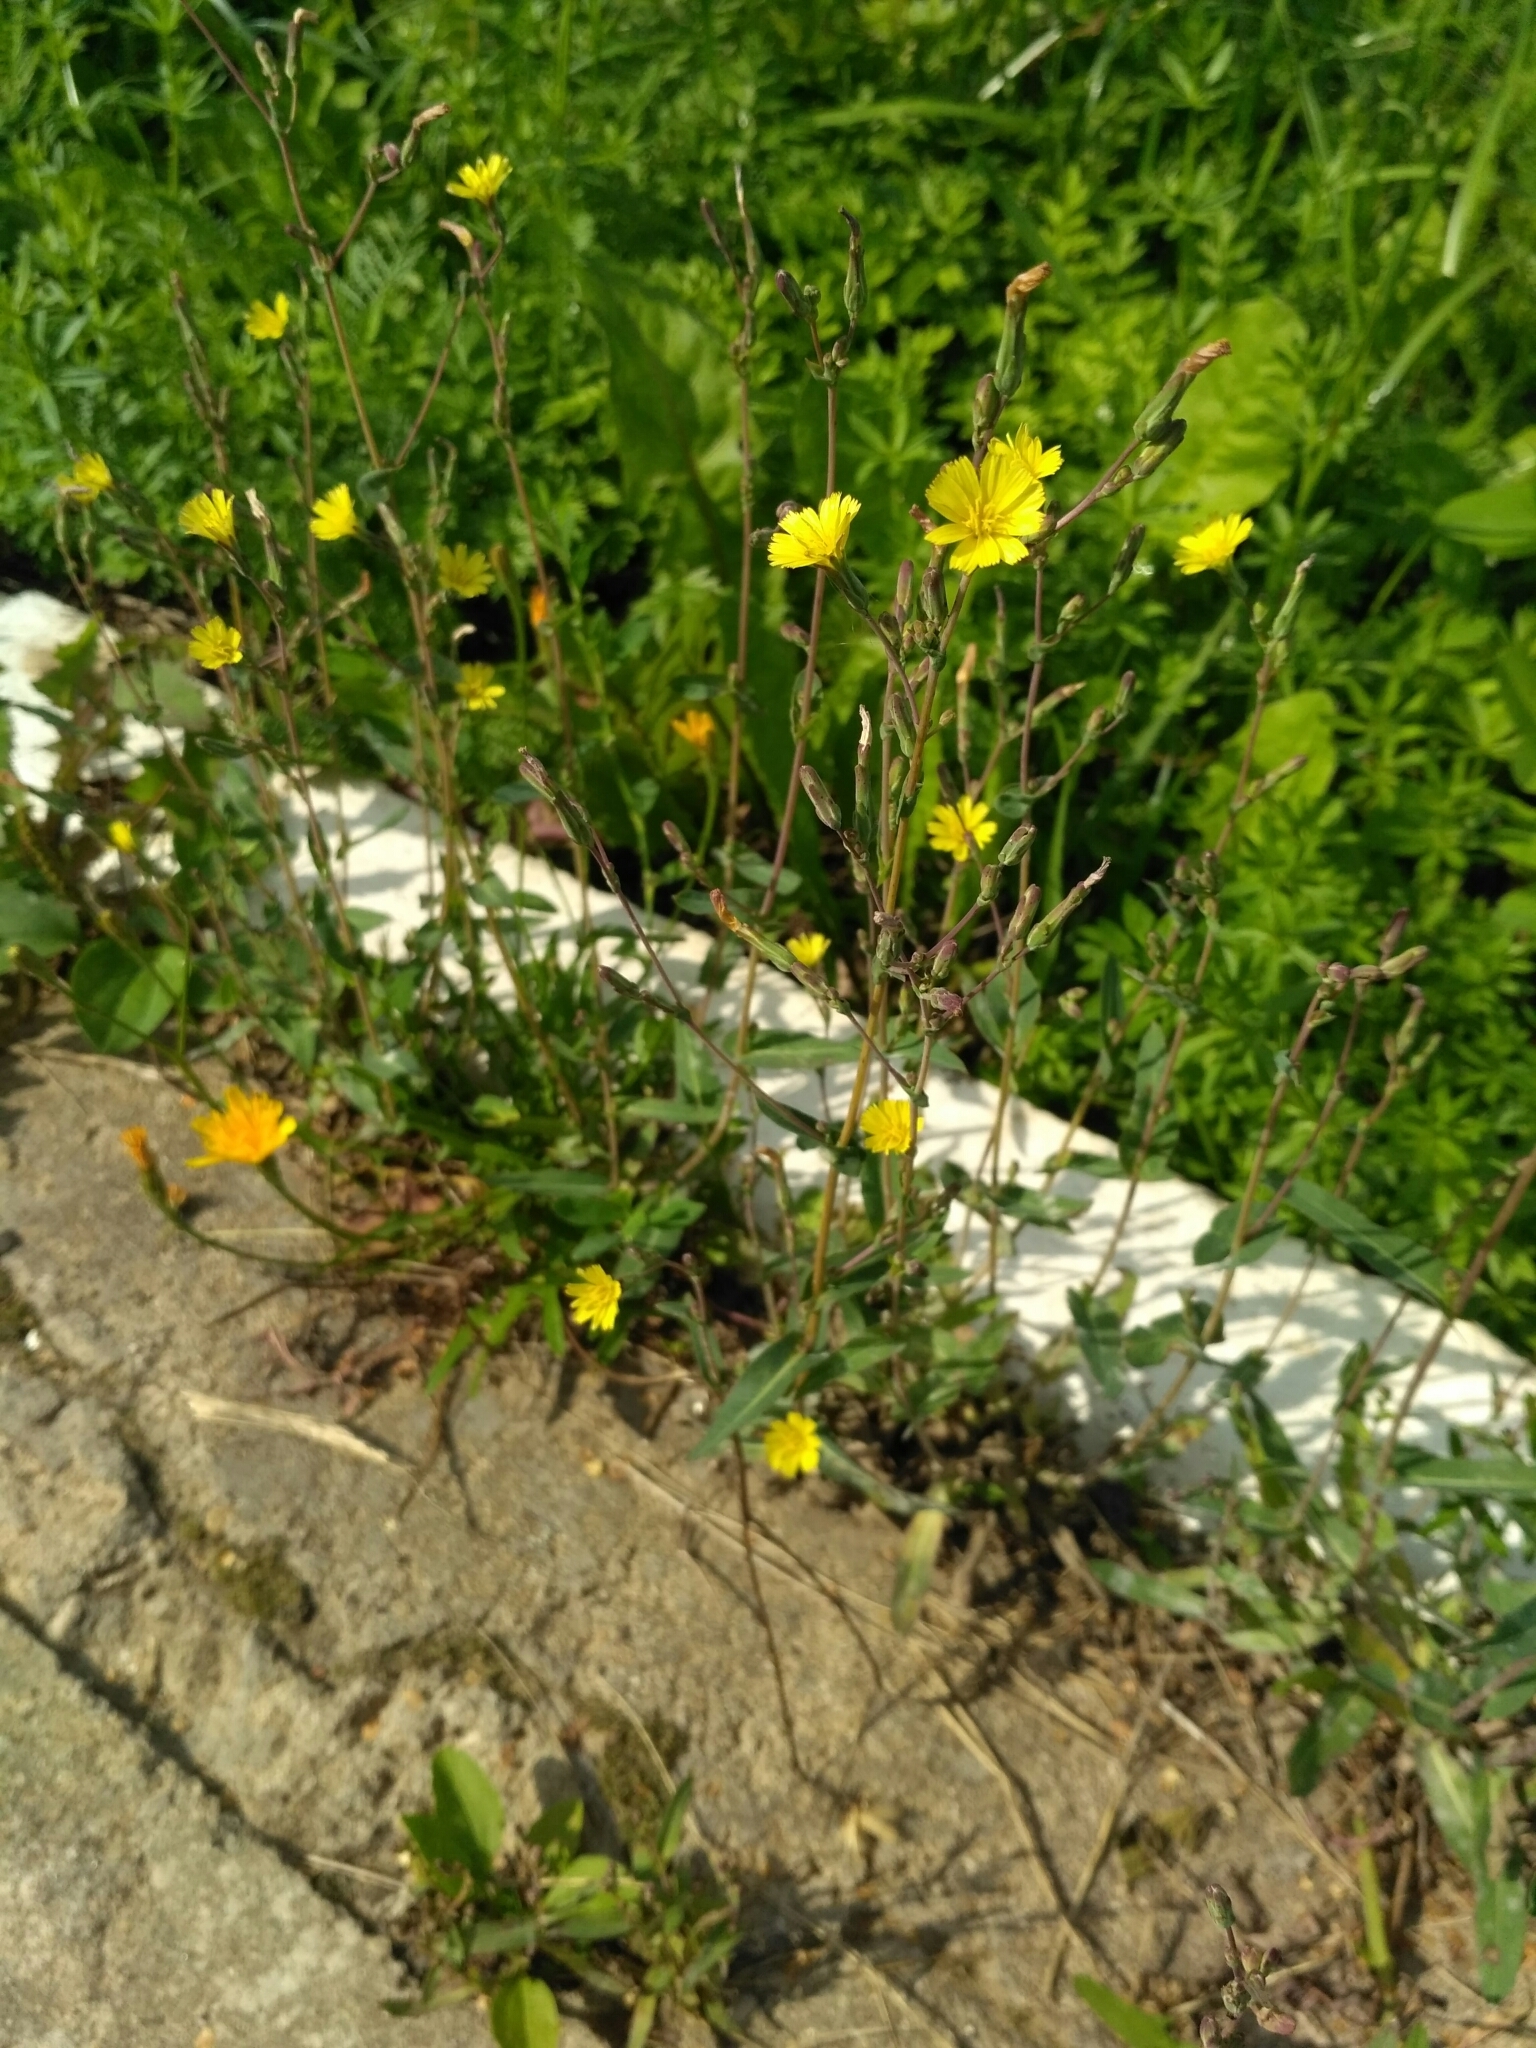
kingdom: Plantae
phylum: Tracheophyta
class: Magnoliopsida
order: Asterales
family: Asteraceae
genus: Lactuca
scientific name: Lactuca serriola
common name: Prickly lettuce
